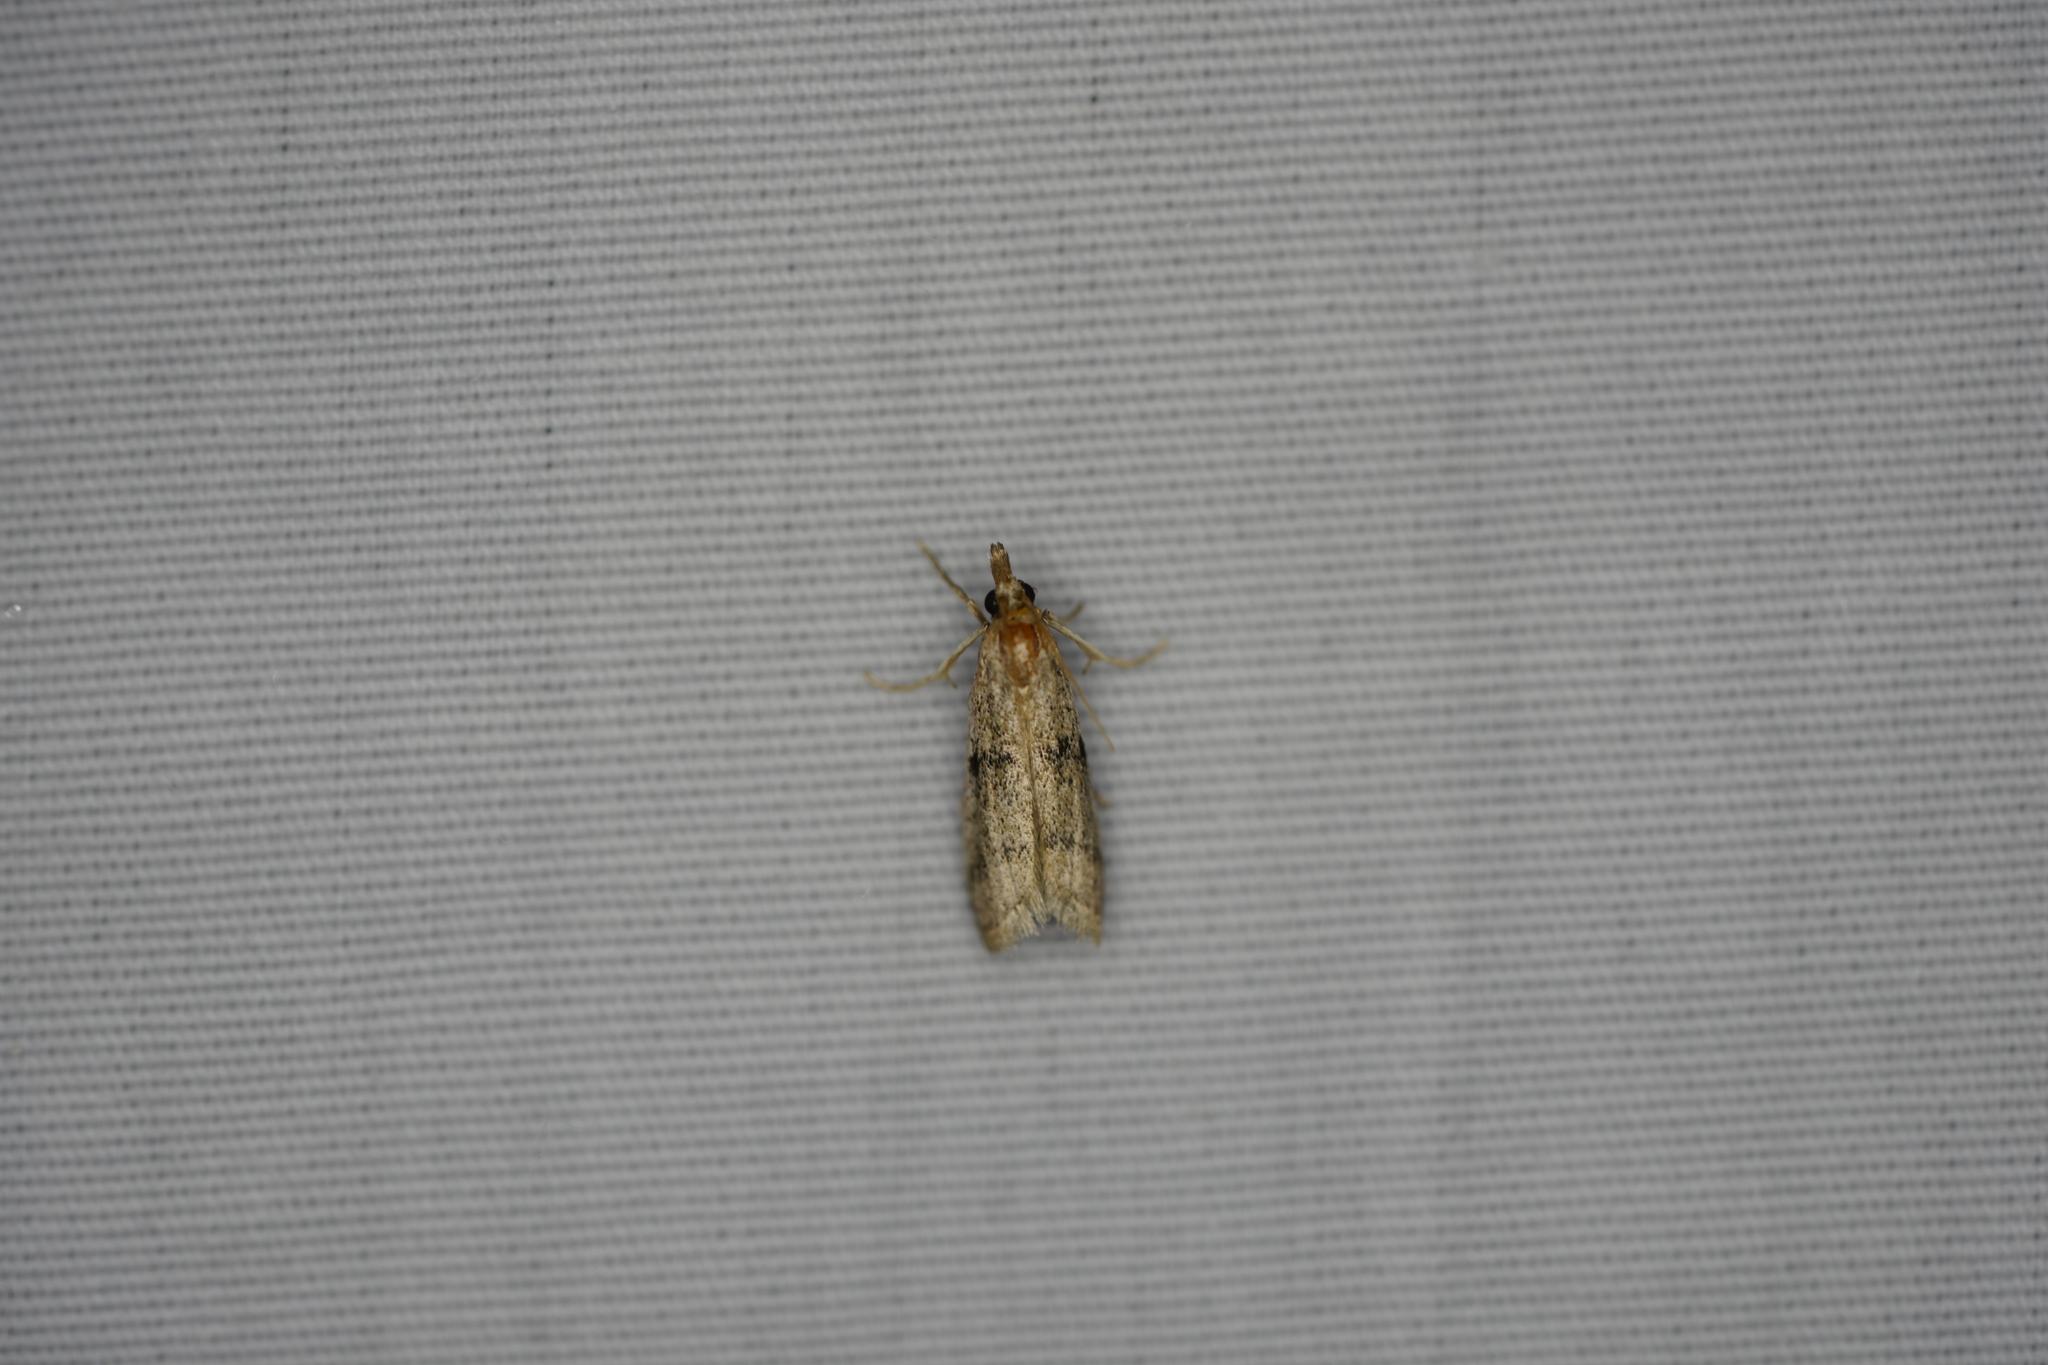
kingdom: Animalia
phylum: Arthropoda
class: Insecta
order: Lepidoptera
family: Pyralidae
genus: Reynosa
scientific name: Reynosa floscella
